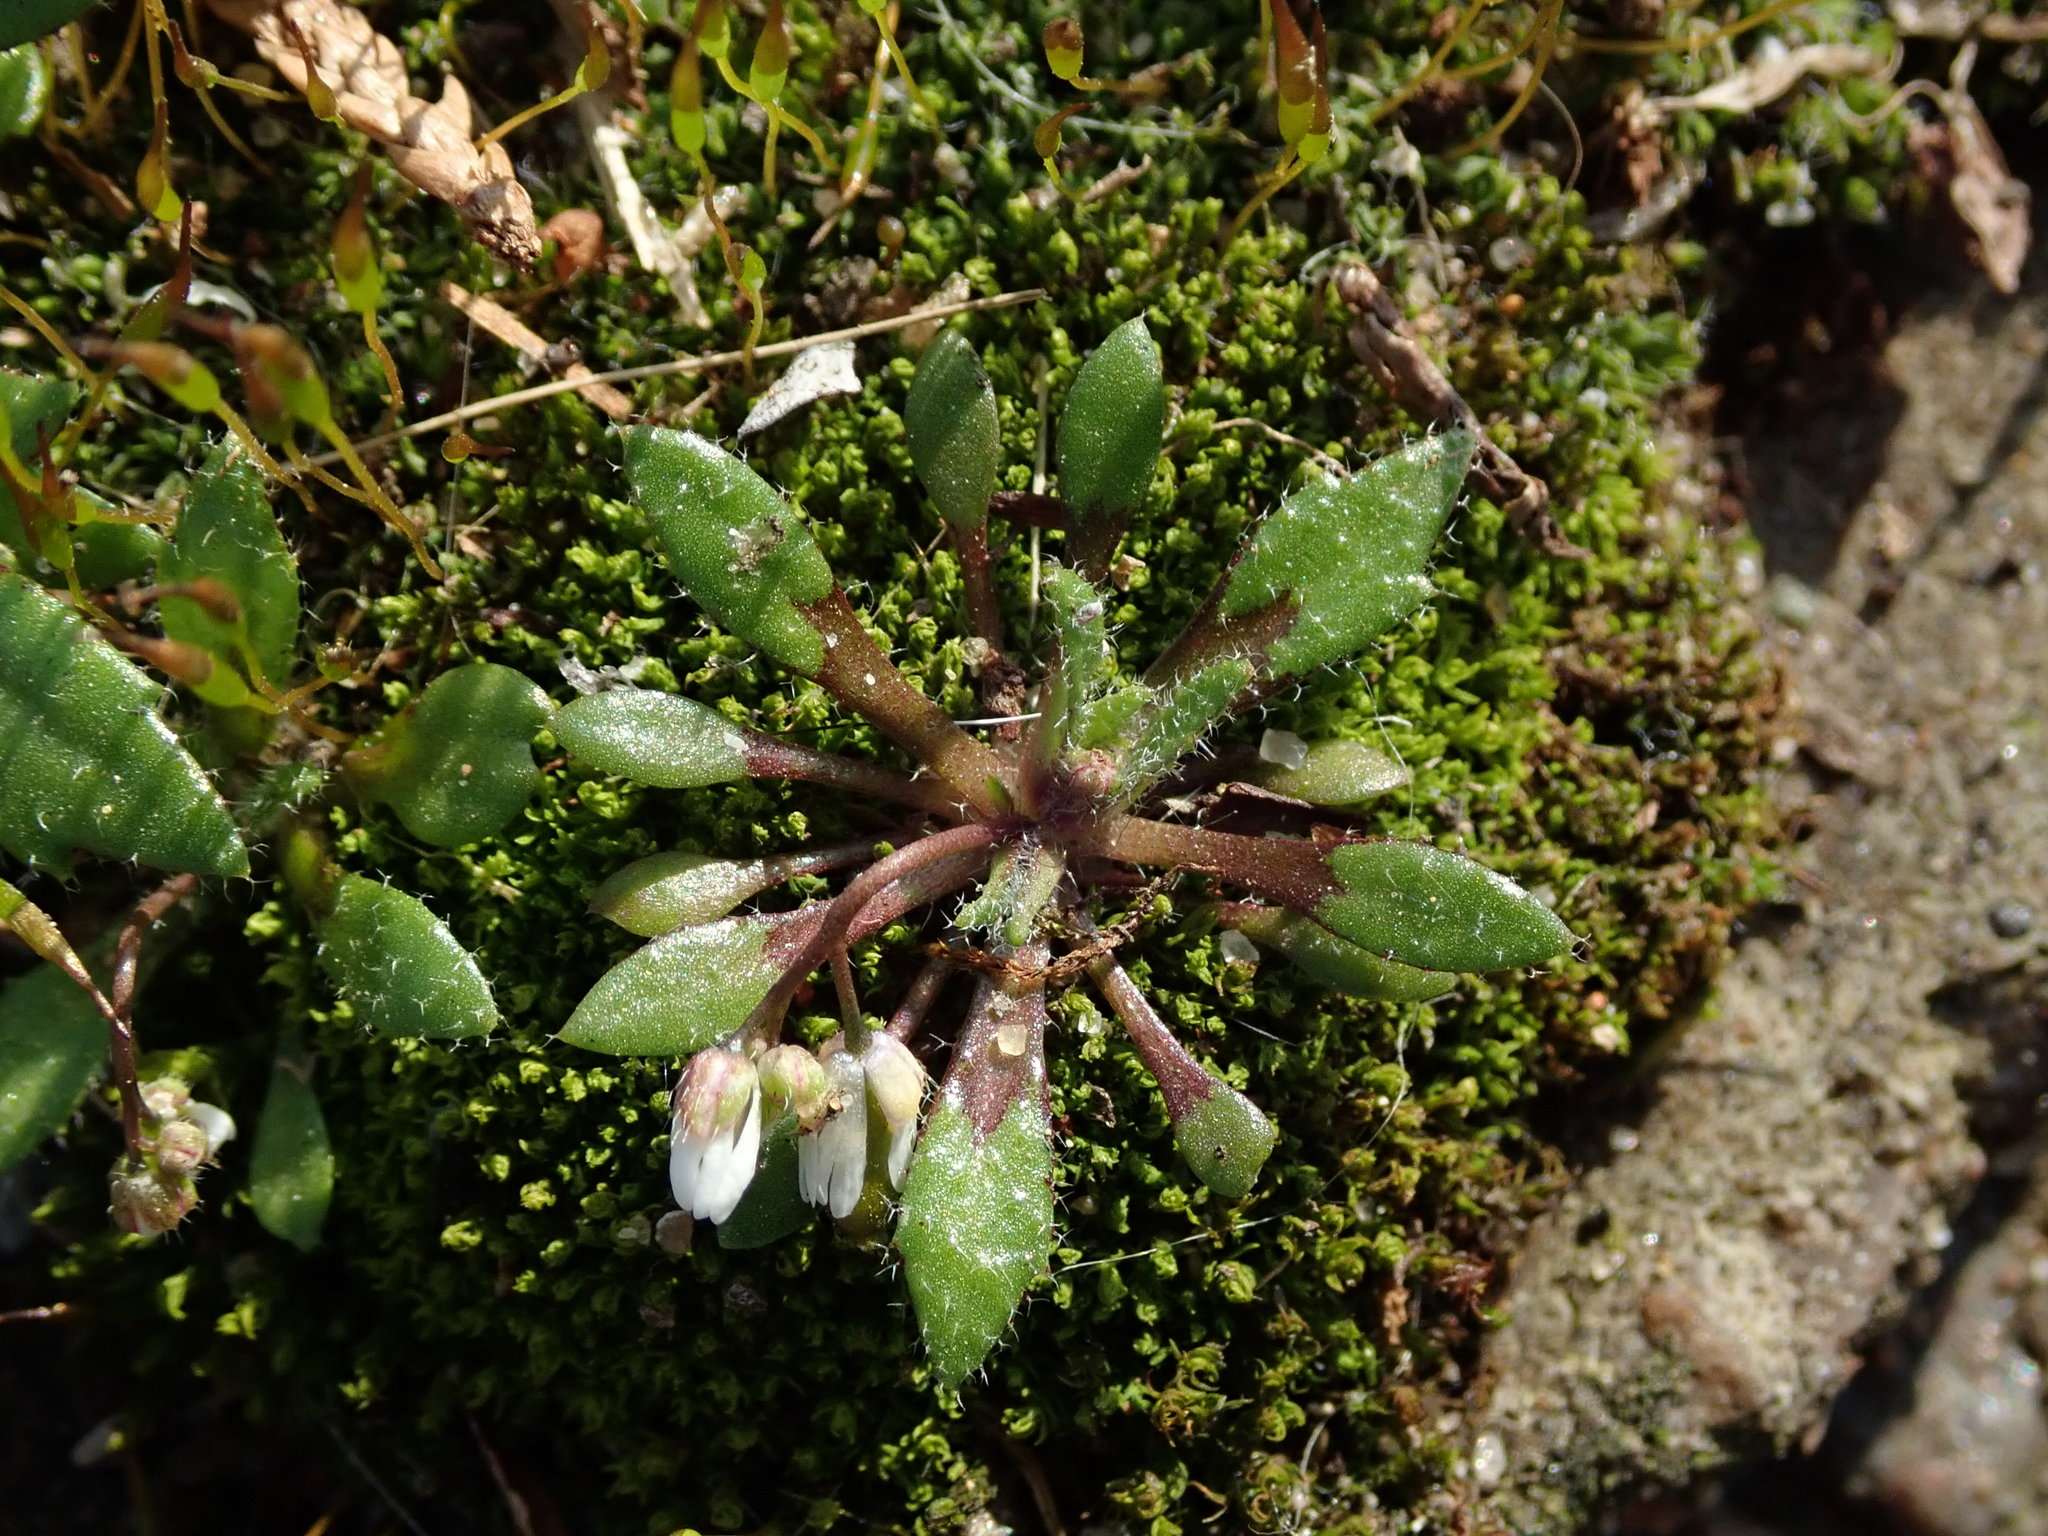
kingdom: Plantae
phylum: Tracheophyta
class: Magnoliopsida
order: Brassicales
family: Brassicaceae
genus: Draba
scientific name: Draba verna
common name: Spring draba
